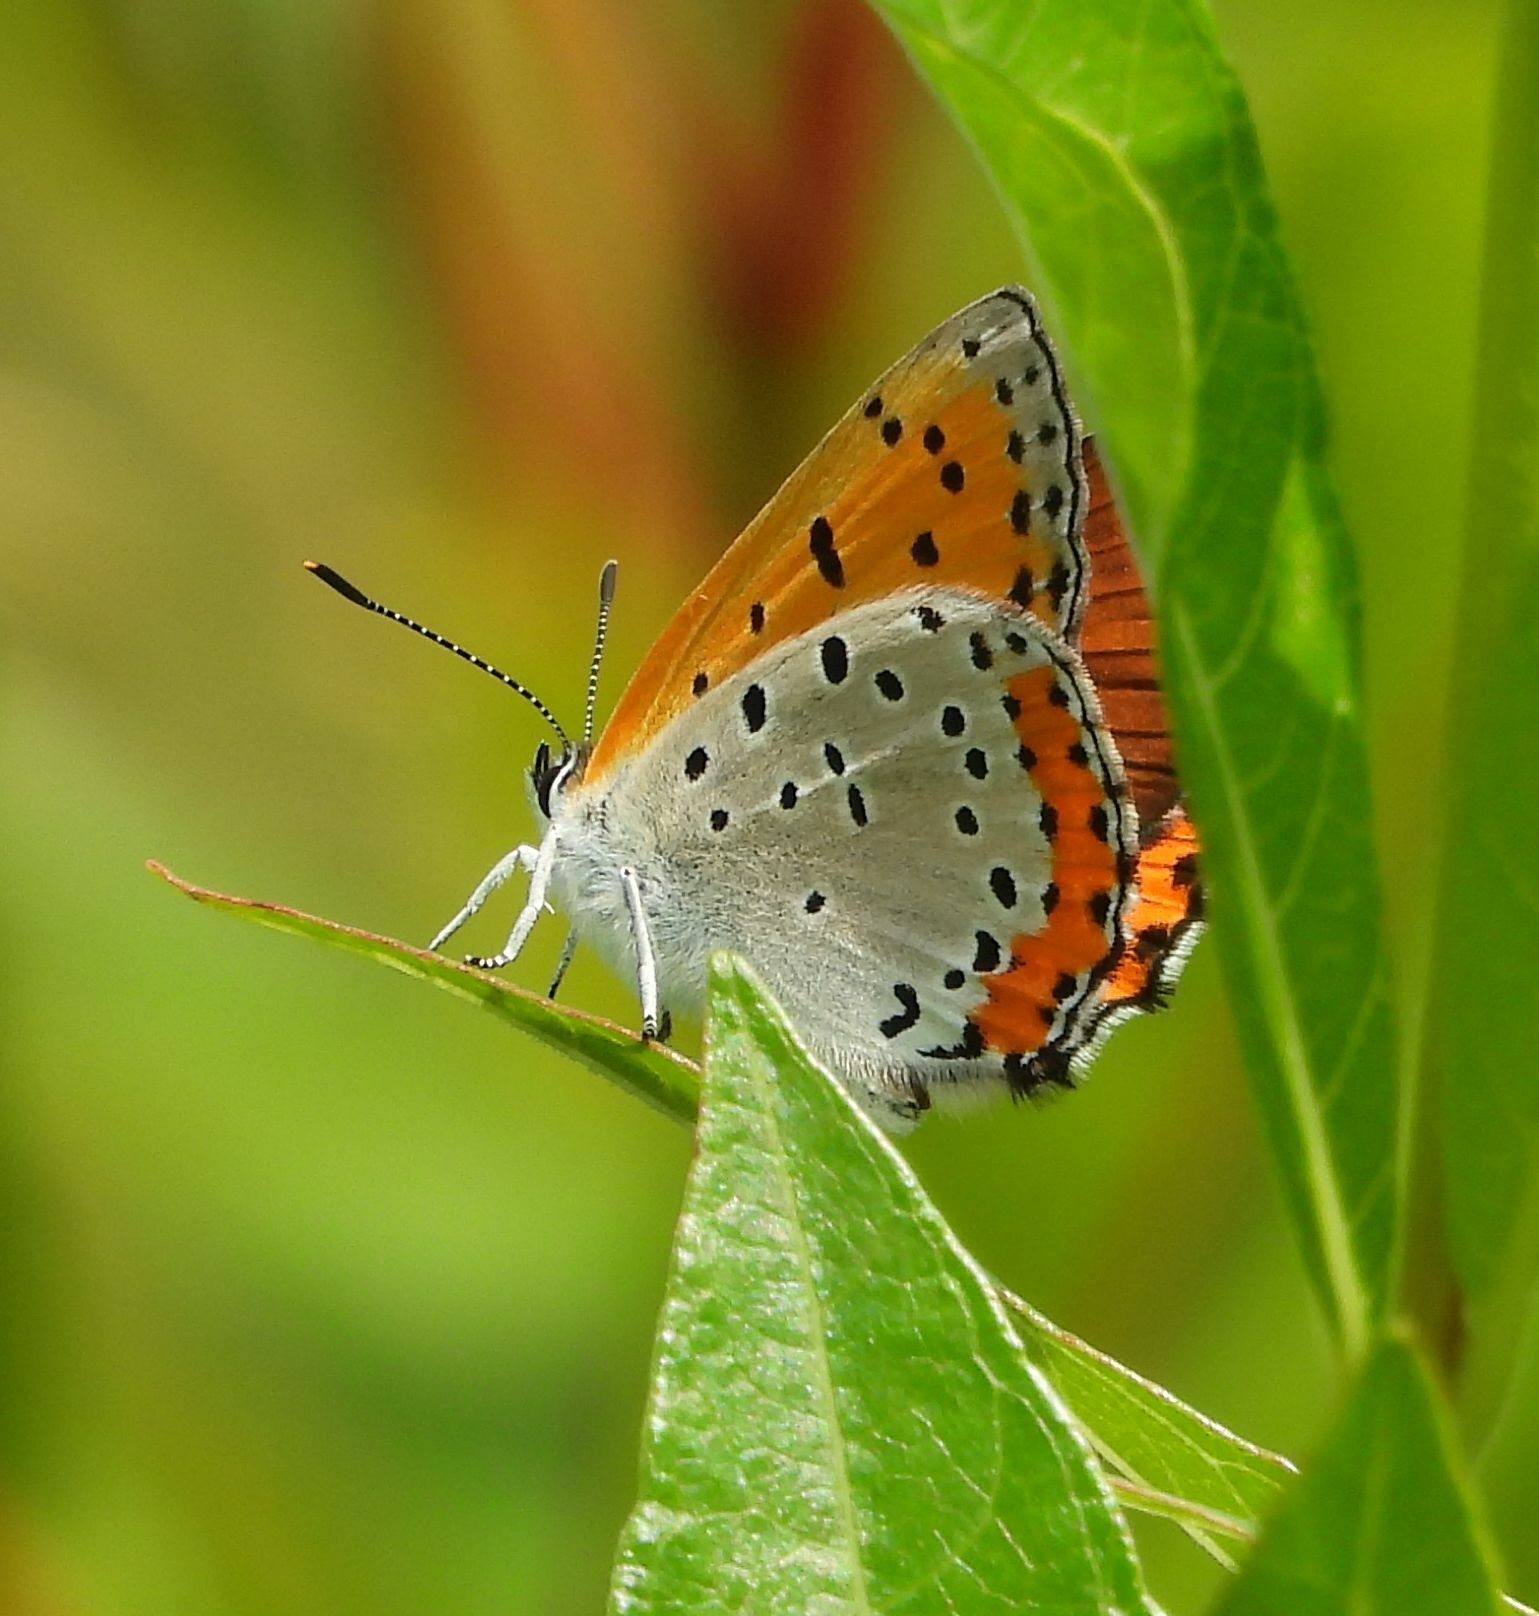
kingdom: Animalia
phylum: Arthropoda
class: Insecta
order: Lepidoptera
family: Lycaenidae
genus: Tharsalea
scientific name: Tharsalea hyllus
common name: Bronze copper
